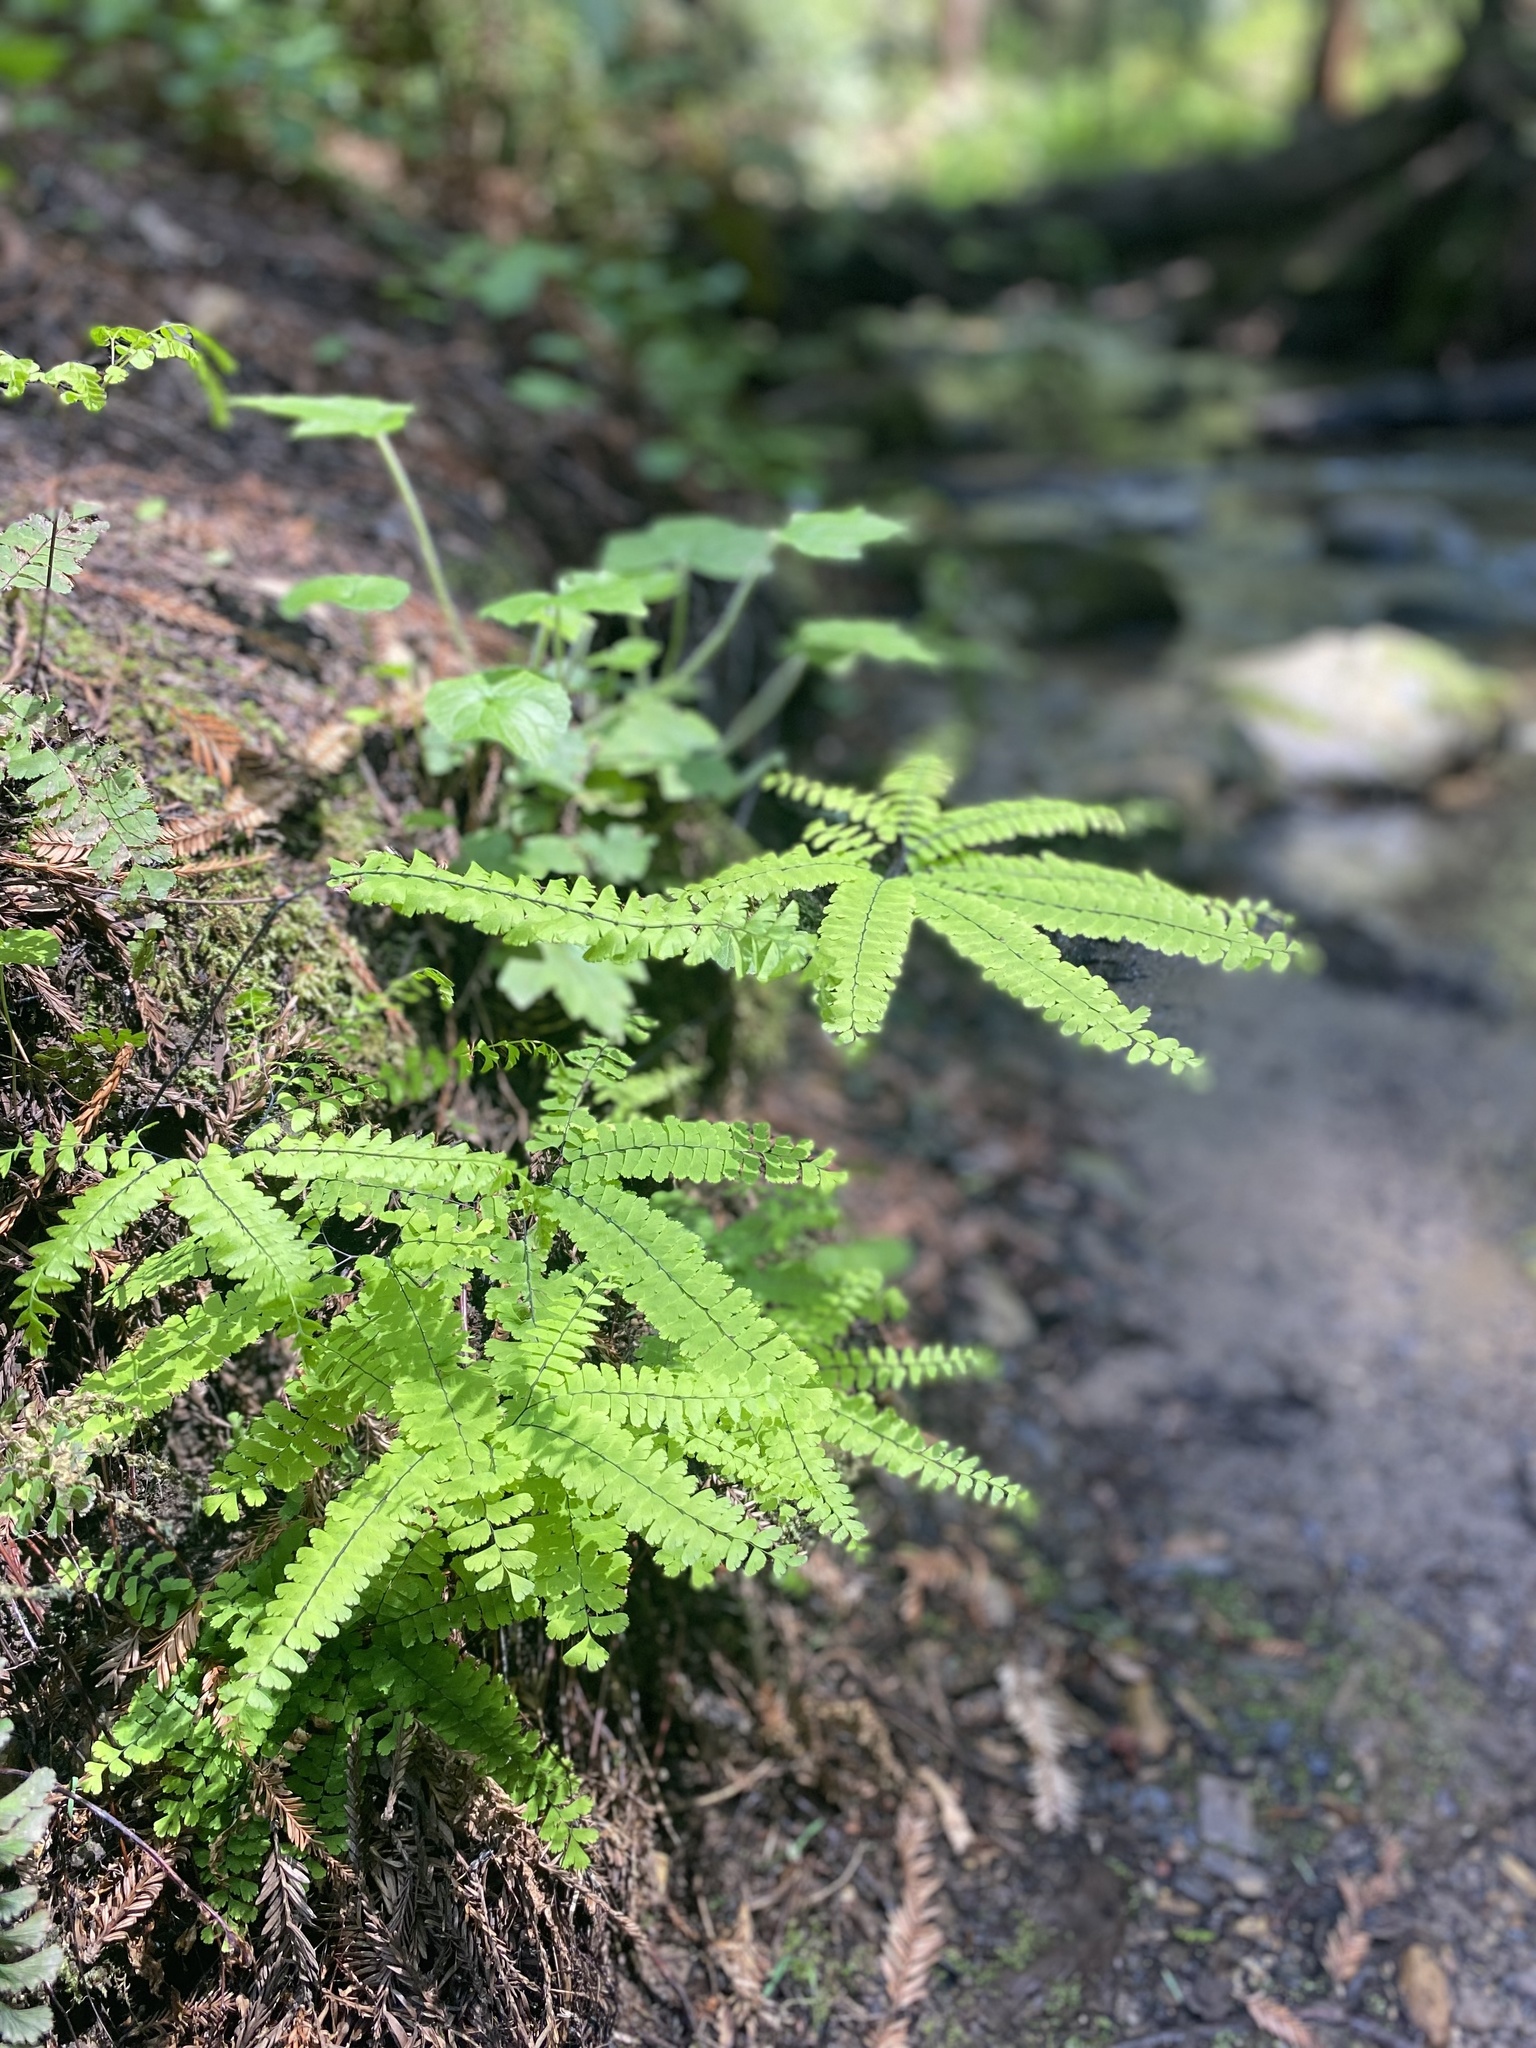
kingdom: Plantae
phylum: Tracheophyta
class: Polypodiopsida
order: Polypodiales
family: Pteridaceae
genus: Adiantum
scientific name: Adiantum aleuticum
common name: Aleutian maidenhair fern
